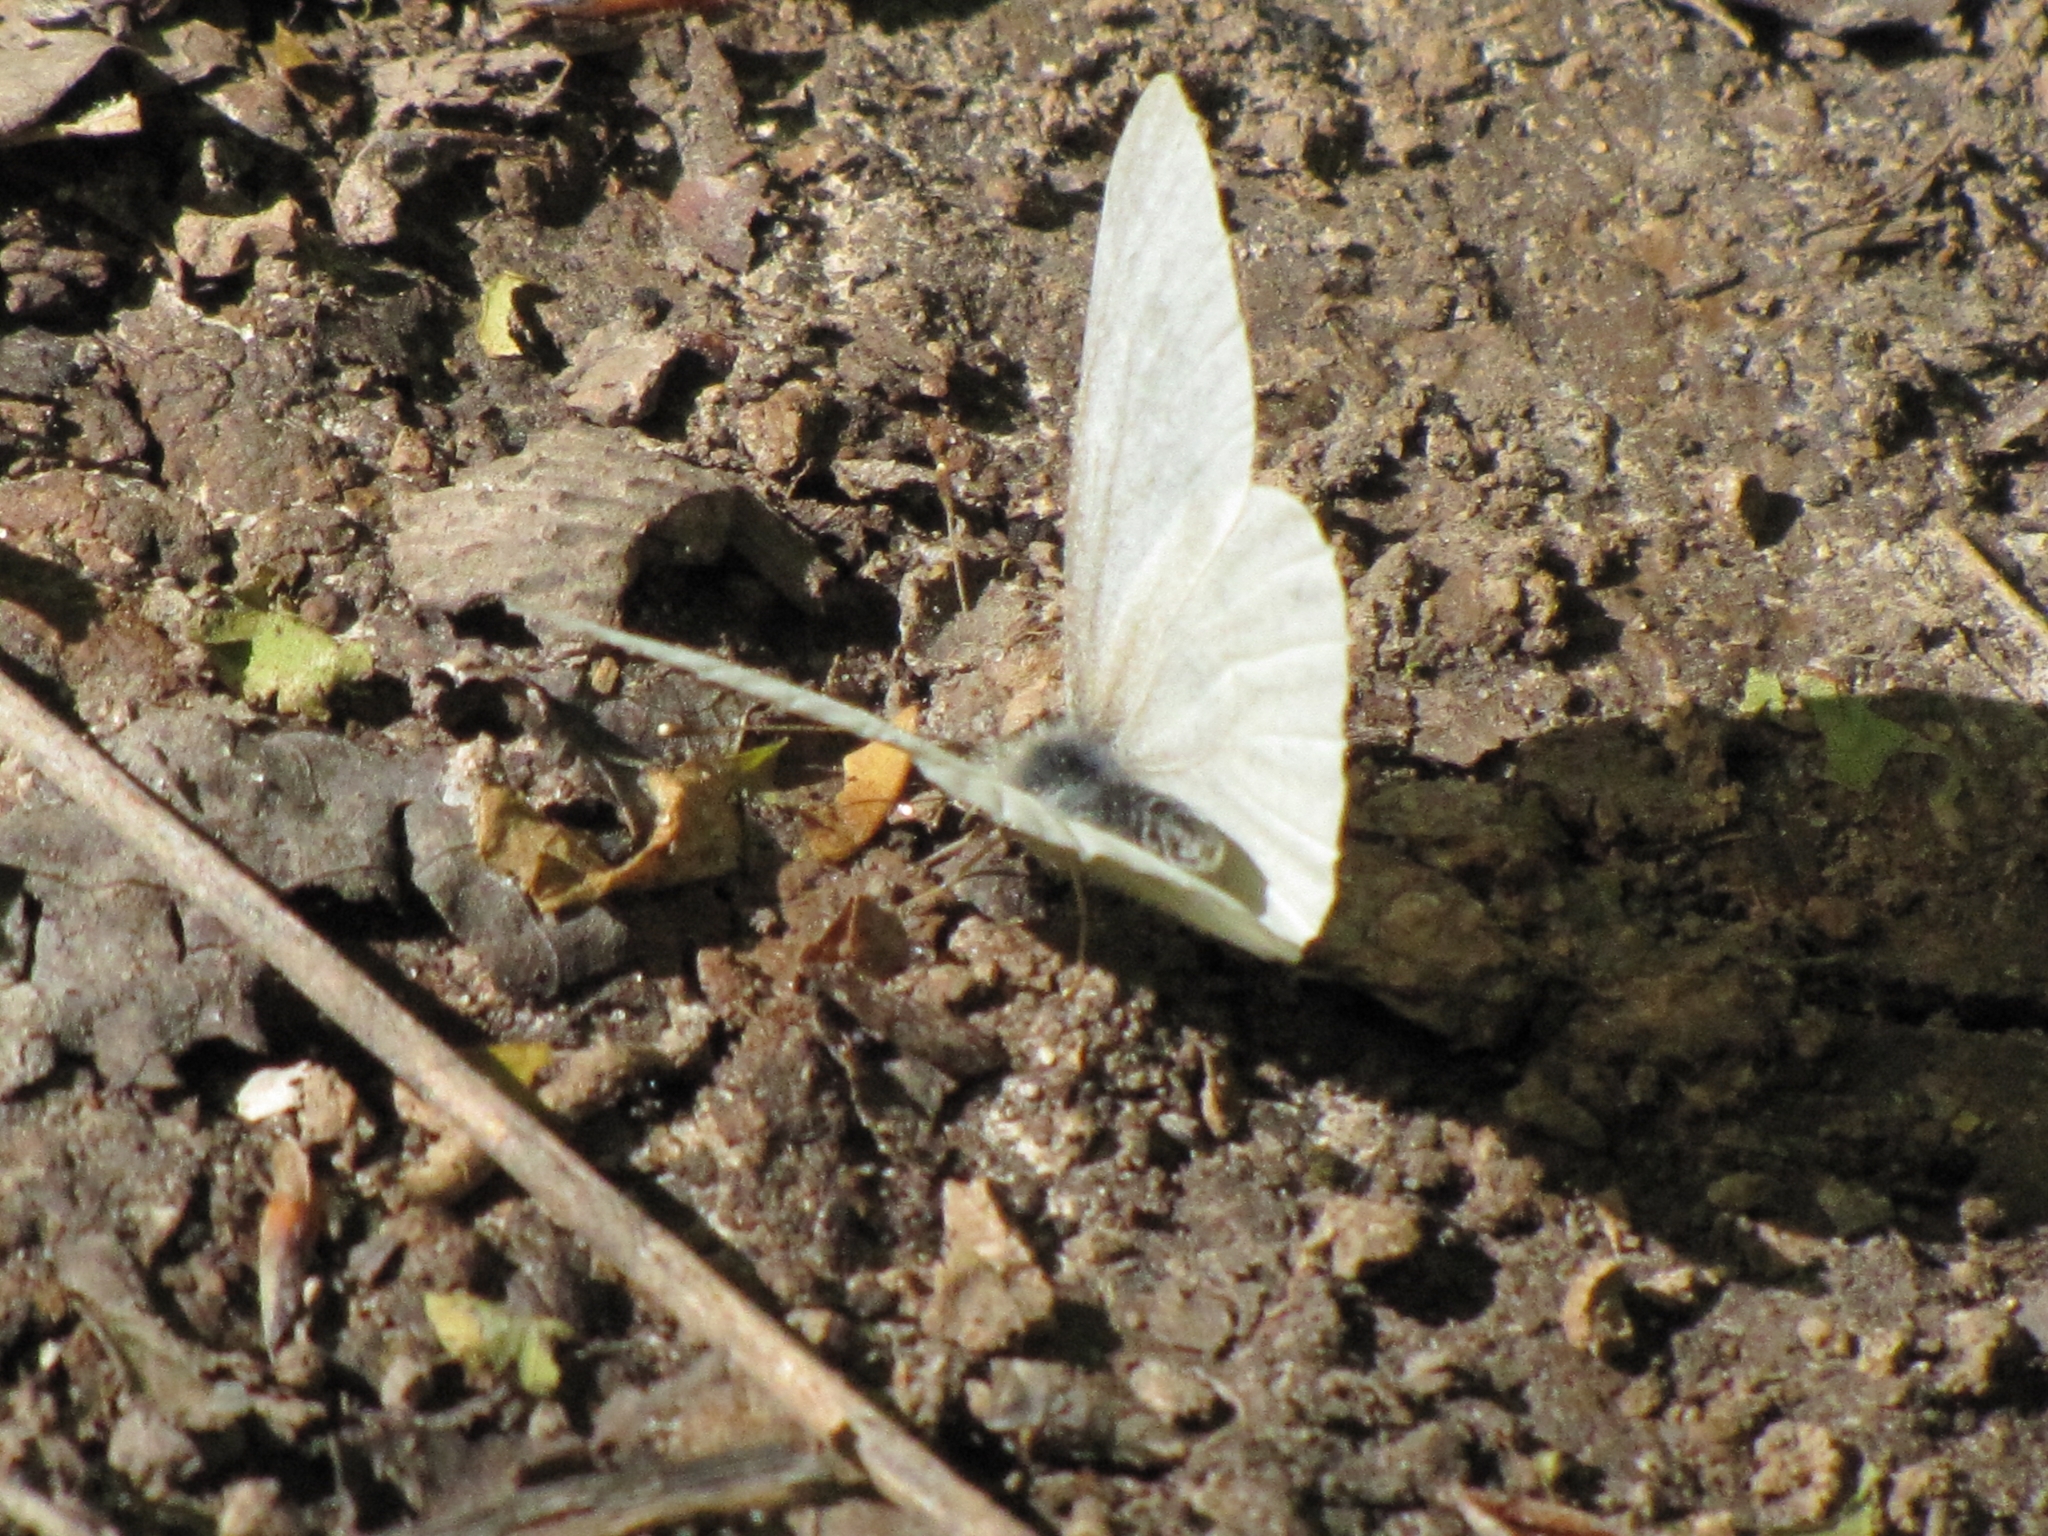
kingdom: Animalia
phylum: Arthropoda
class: Insecta
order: Lepidoptera
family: Pieridae
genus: Pieris
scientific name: Pieris virginiensis
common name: West virginia white
